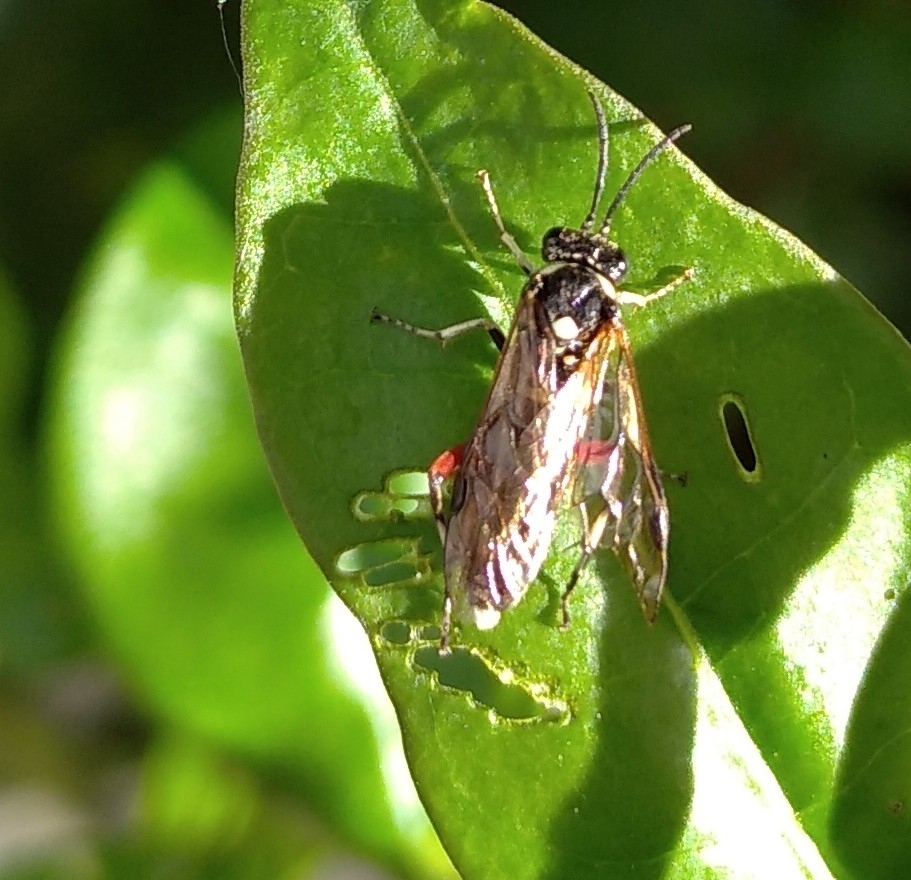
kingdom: Animalia
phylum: Arthropoda
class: Insecta
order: Hymenoptera
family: Tenthredinidae
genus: Macrophya
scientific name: Macrophya punctumalbum
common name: Sawfly
